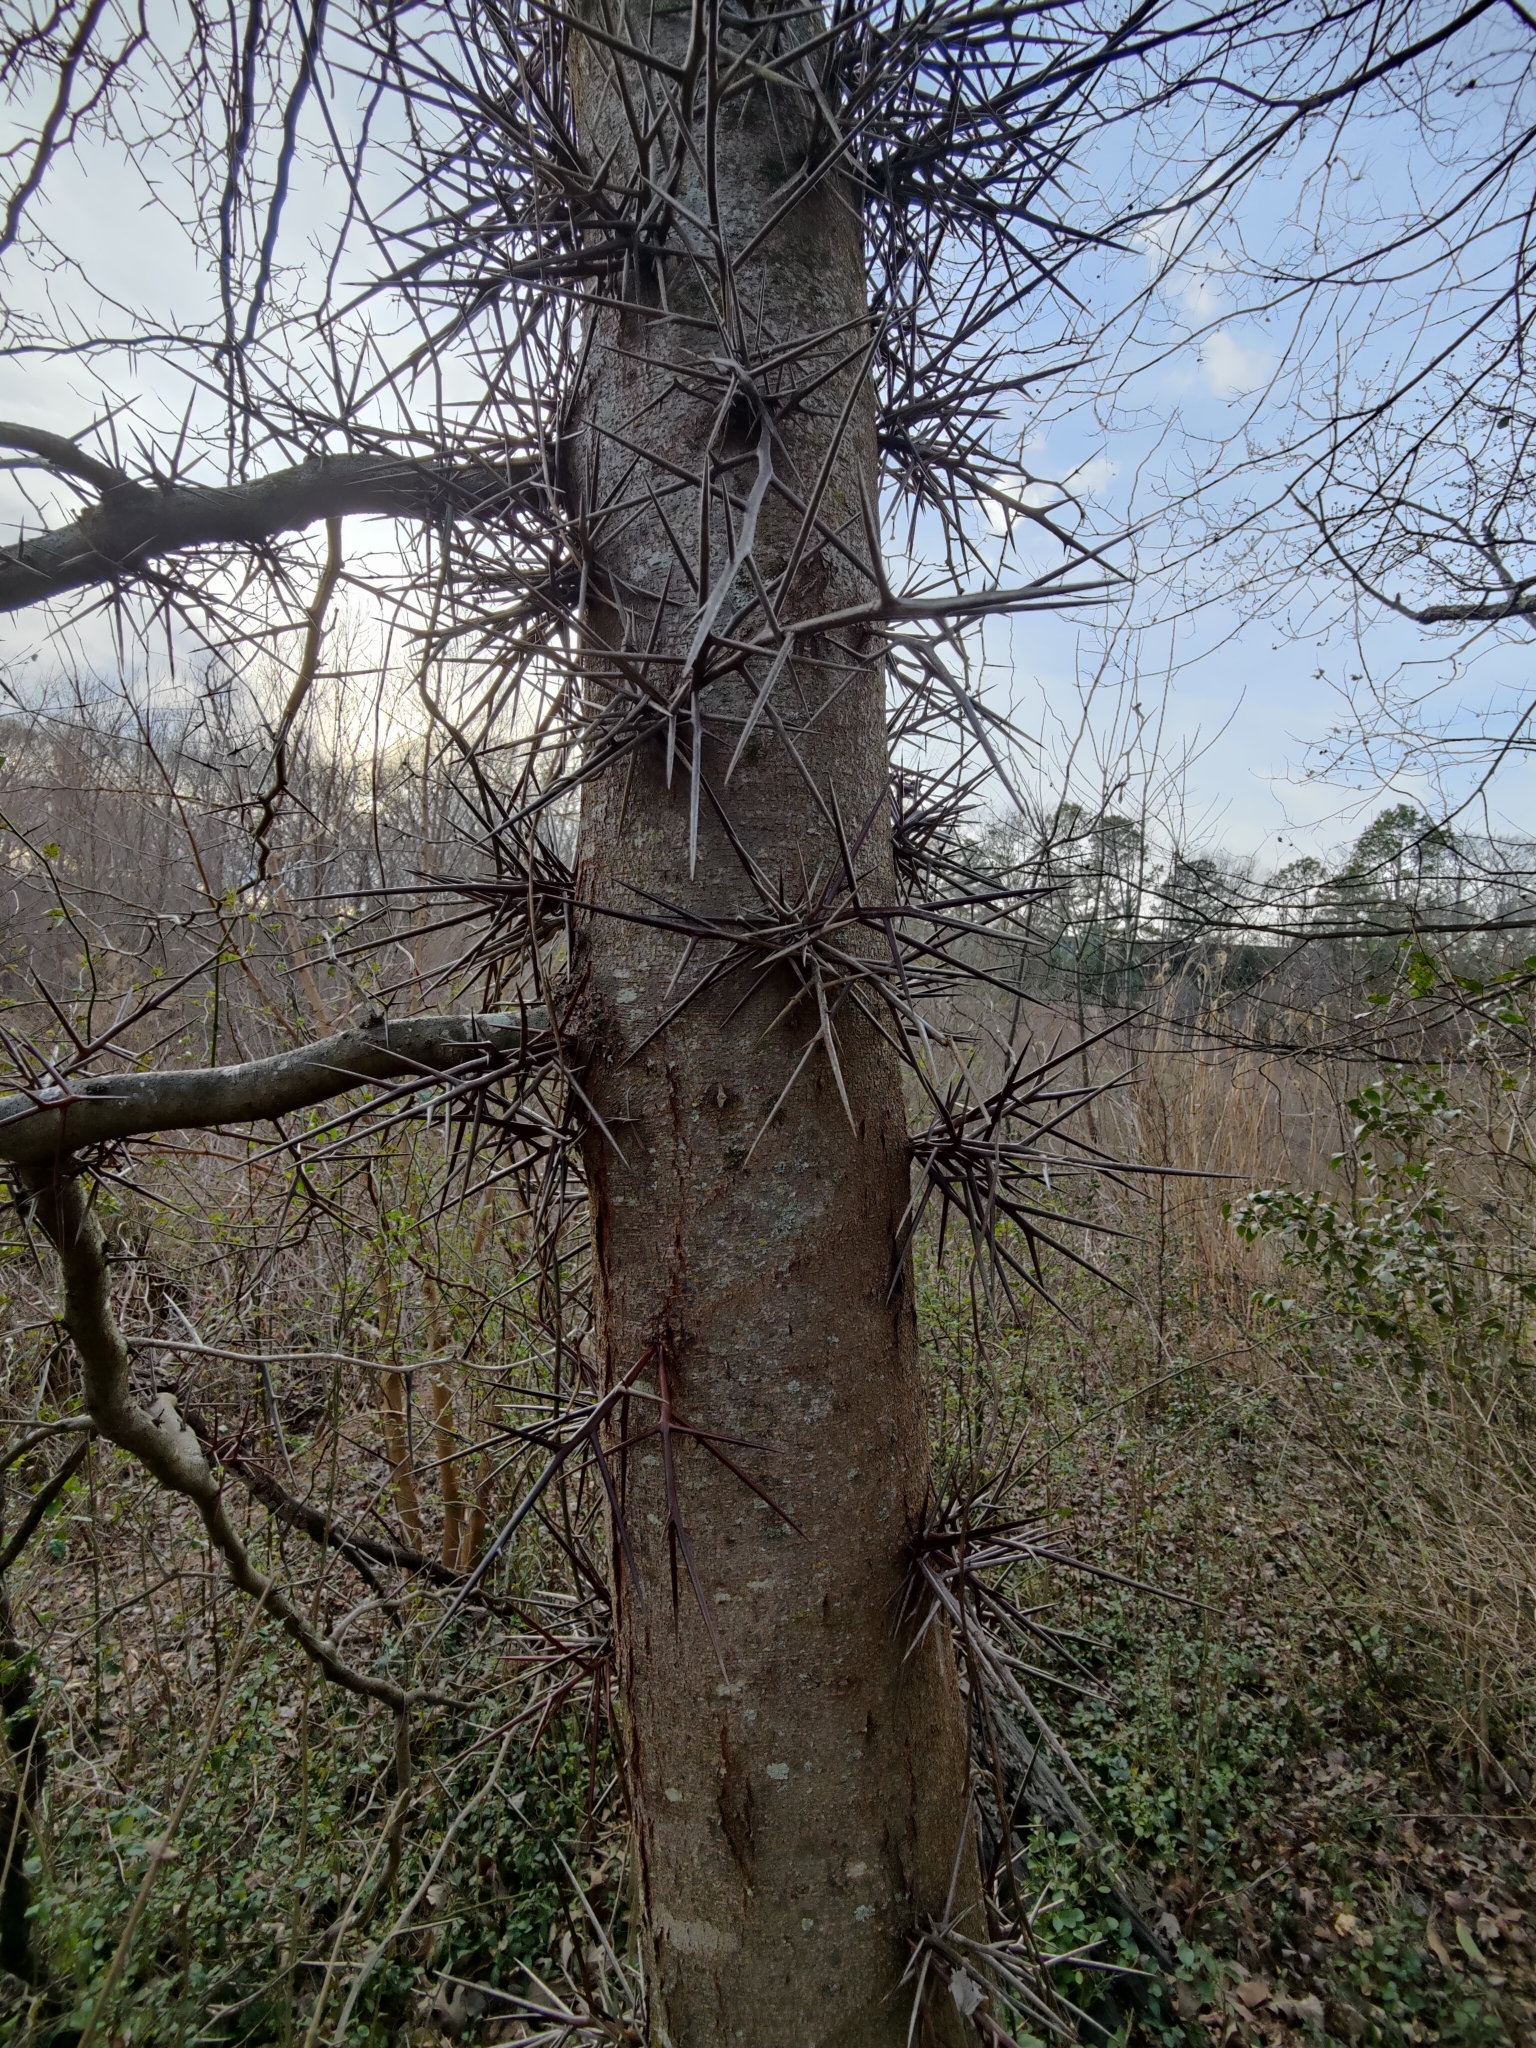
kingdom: Plantae
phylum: Tracheophyta
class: Magnoliopsida
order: Fabales
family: Fabaceae
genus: Gleditsia
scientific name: Gleditsia triacanthos
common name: Common honeylocust
